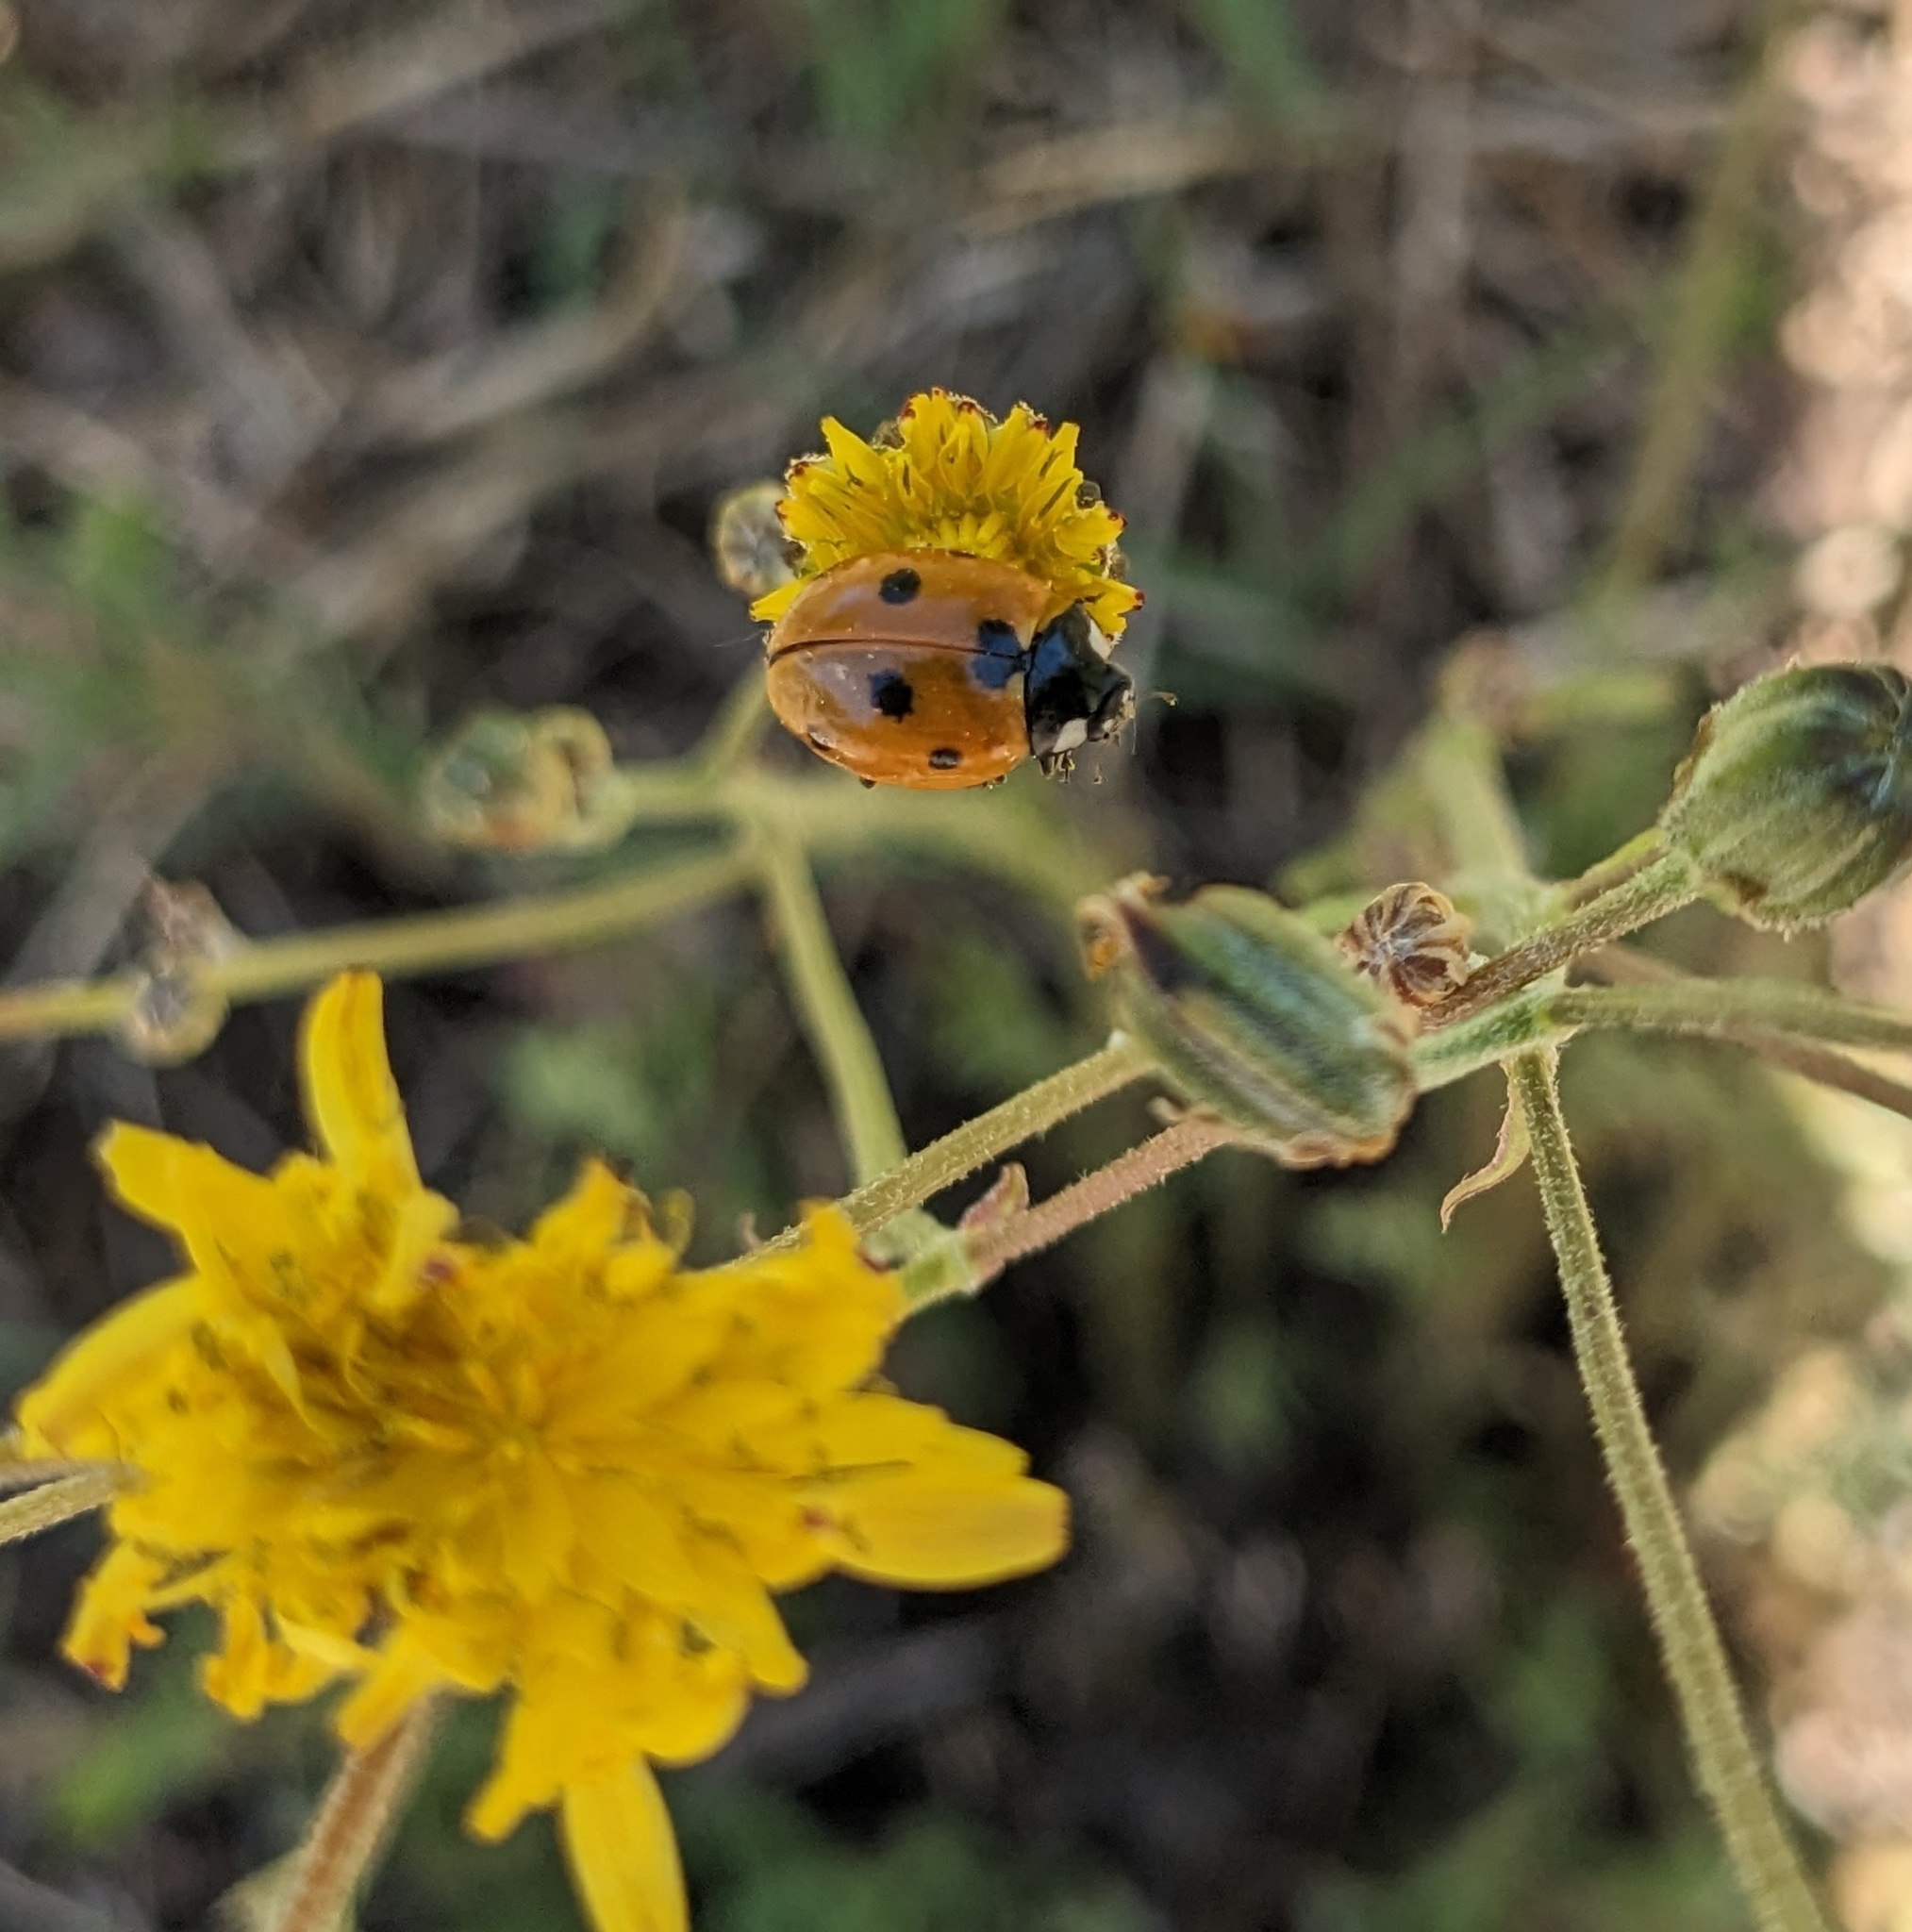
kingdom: Animalia
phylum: Arthropoda
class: Insecta
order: Coleoptera
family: Coccinellidae
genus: Coccinella
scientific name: Coccinella septempunctata
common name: Sevenspotted lady beetle
